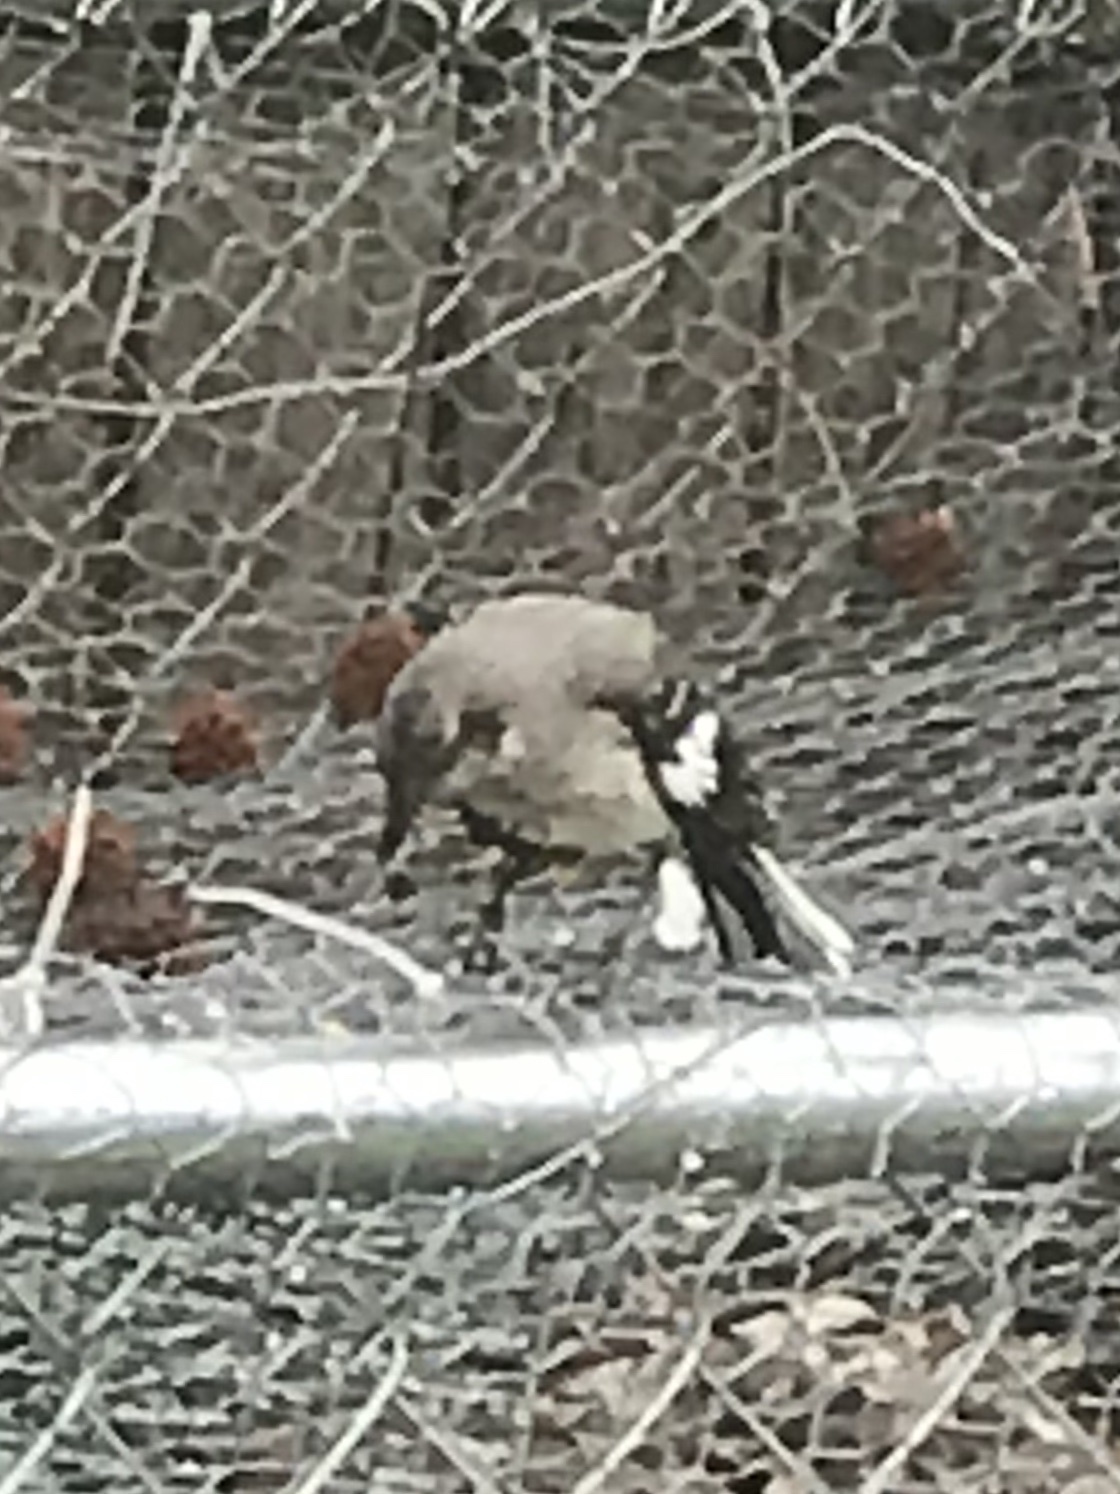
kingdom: Animalia
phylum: Chordata
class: Aves
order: Passeriformes
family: Mimidae
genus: Mimus
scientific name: Mimus polyglottos
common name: Northern mockingbird
